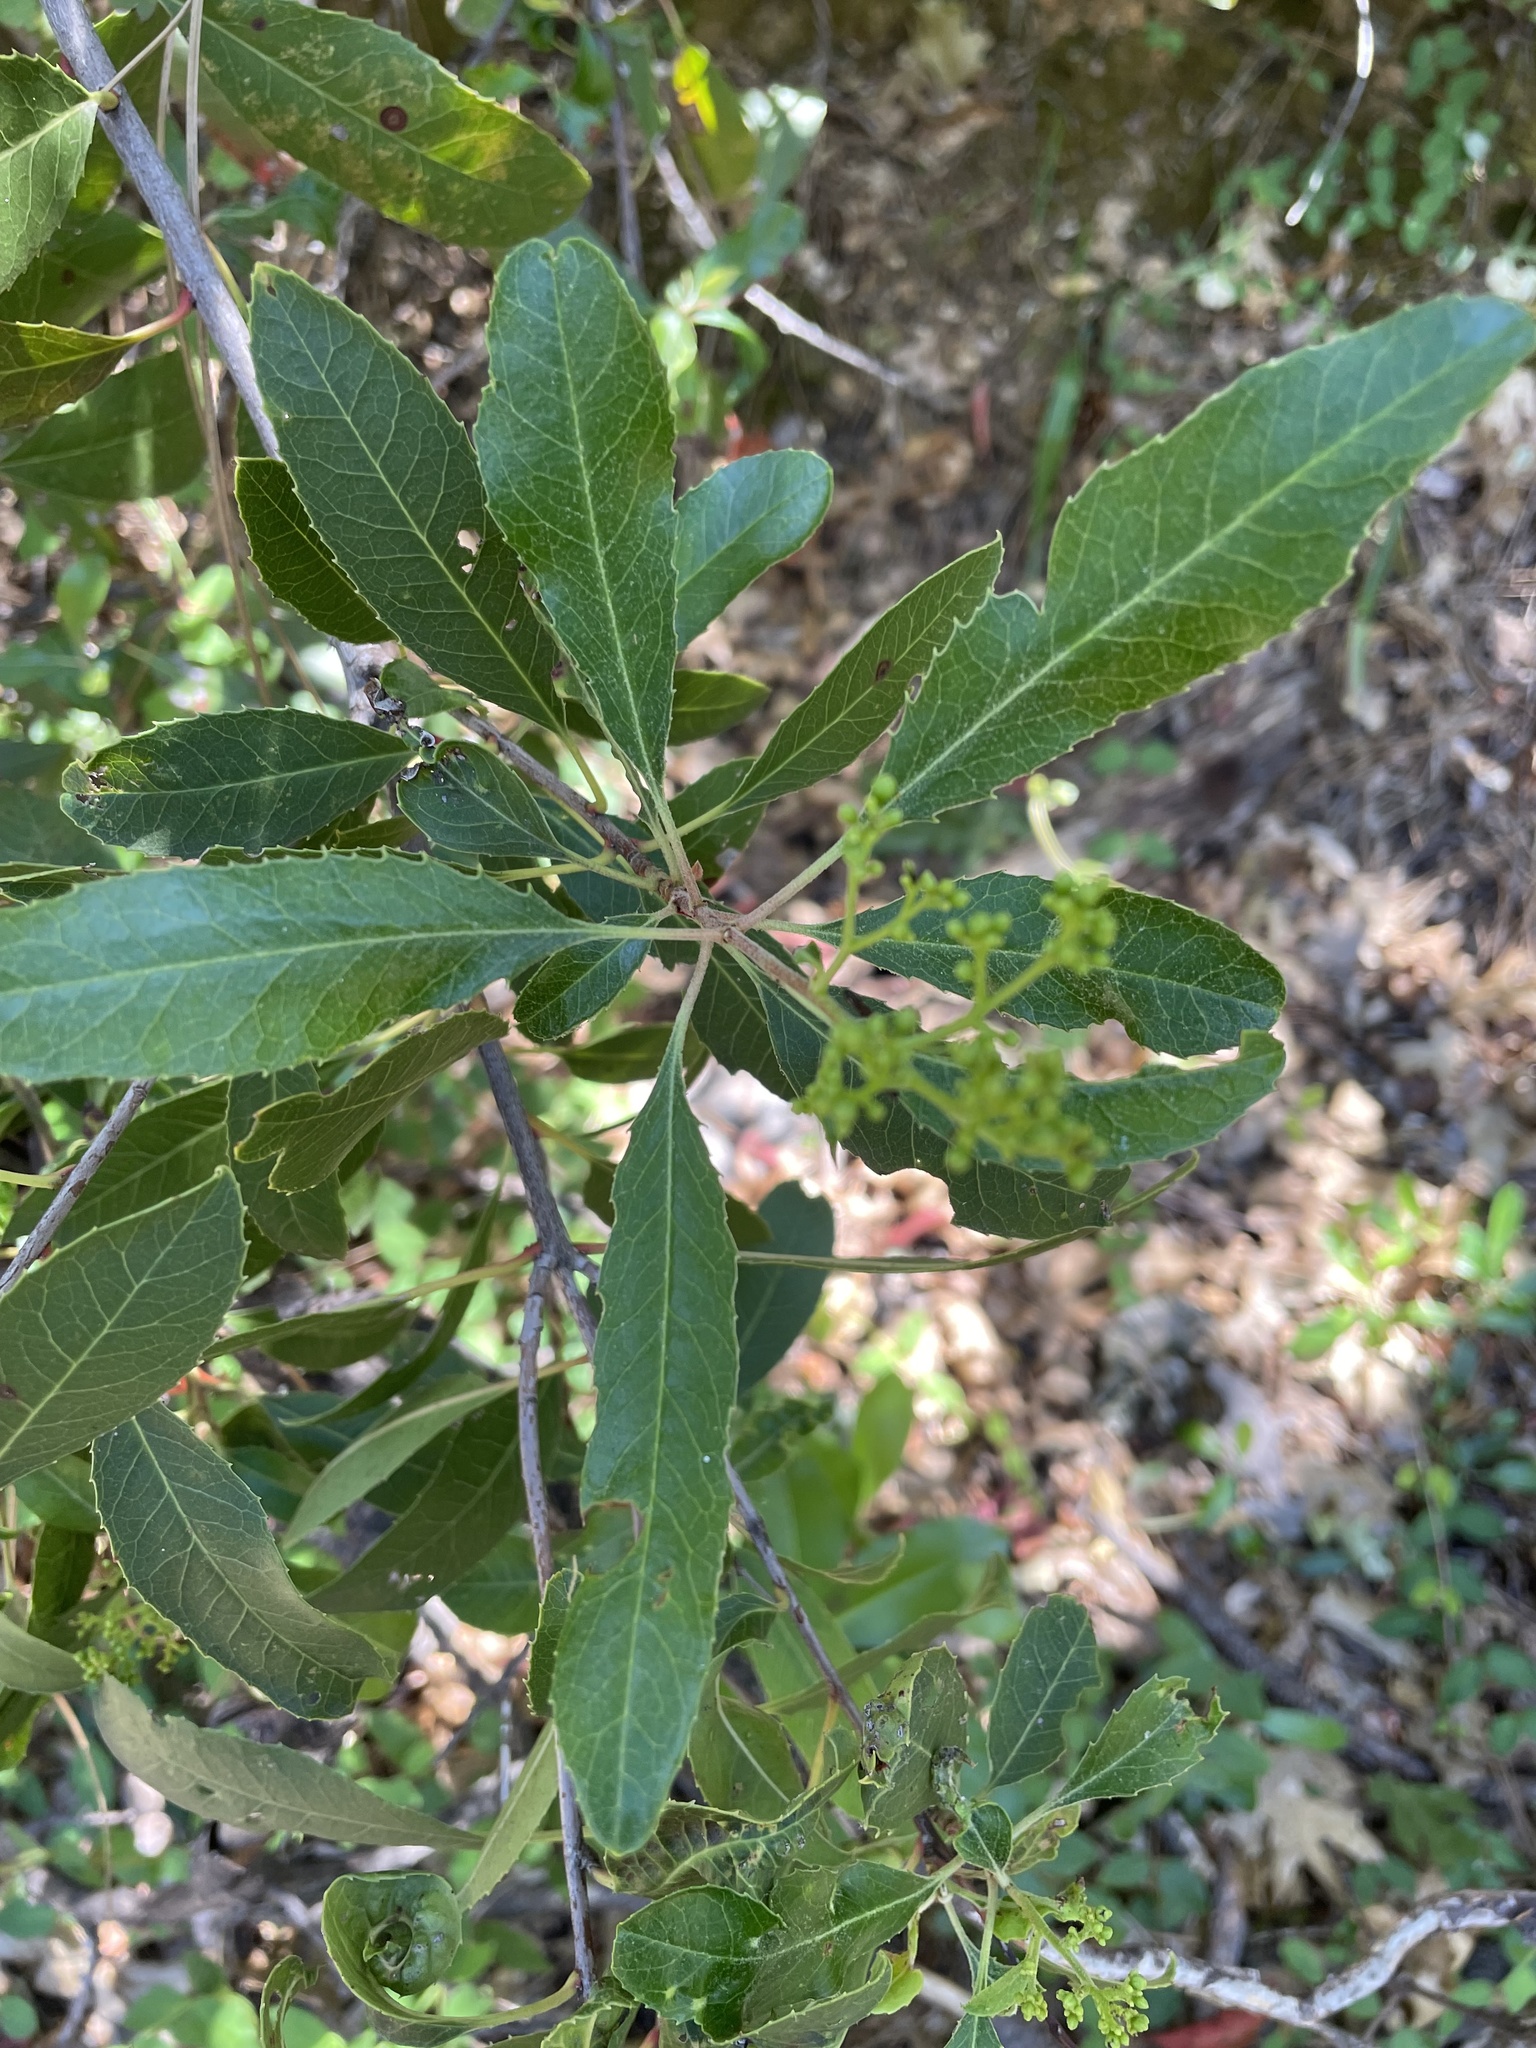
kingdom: Plantae
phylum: Tracheophyta
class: Magnoliopsida
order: Rosales
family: Rosaceae
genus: Heteromeles
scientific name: Heteromeles arbutifolia
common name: California-holly
